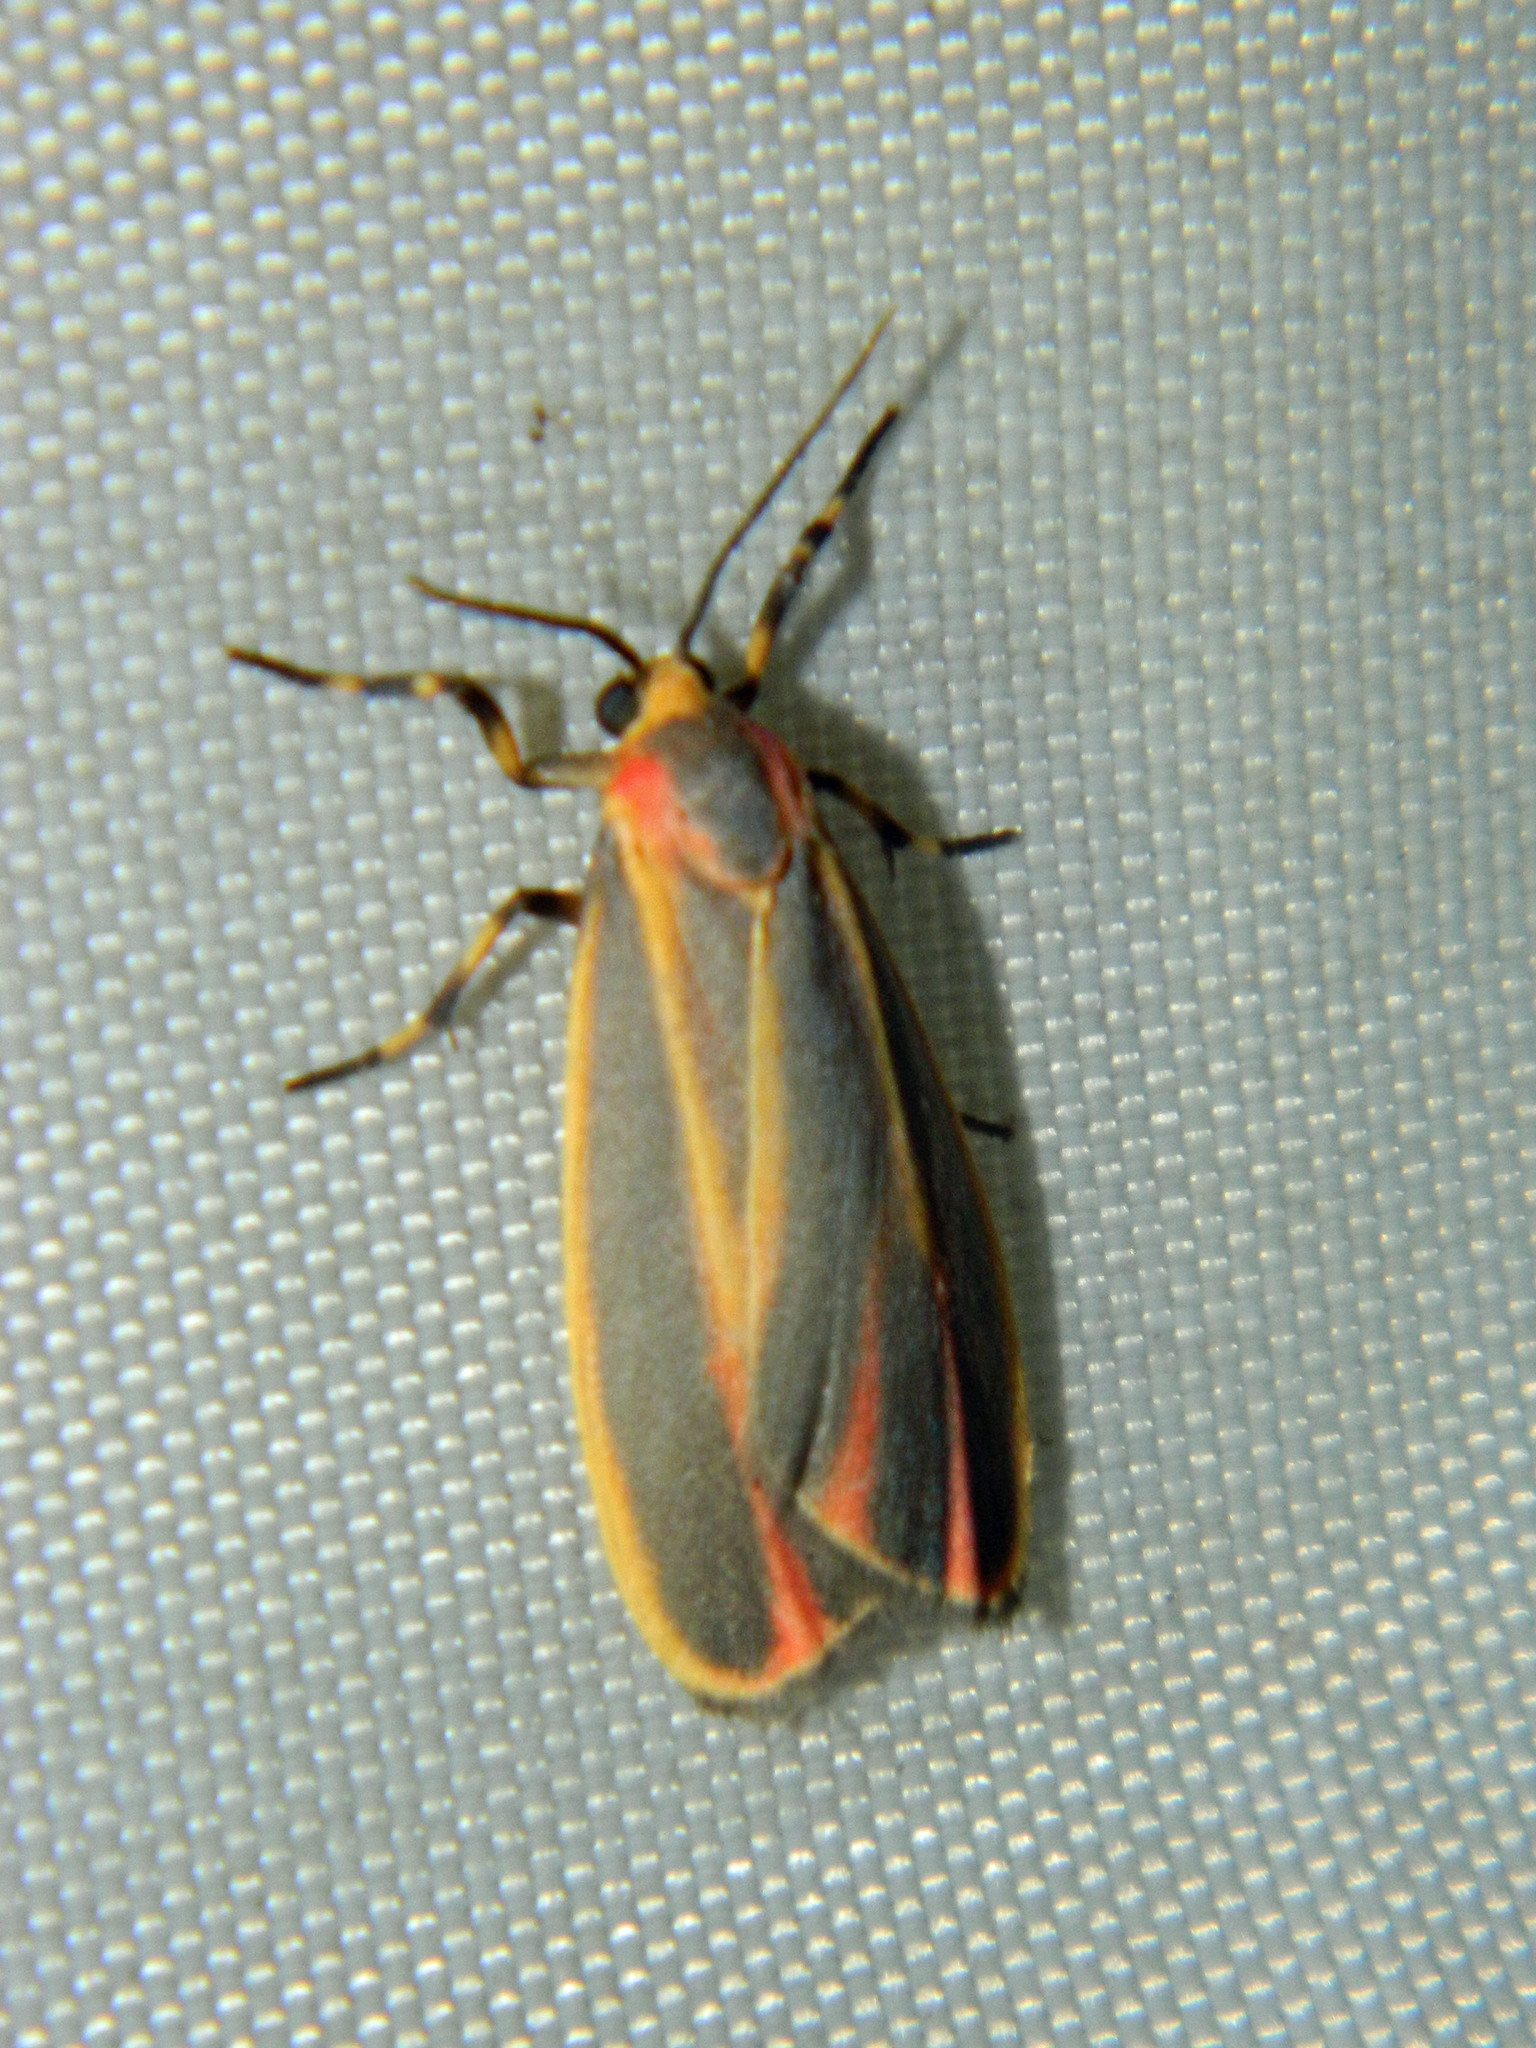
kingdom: Animalia
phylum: Arthropoda
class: Insecta
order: Lepidoptera
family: Erebidae
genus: Hypoprepia
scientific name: Hypoprepia fucosa
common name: Painted lichen moth
